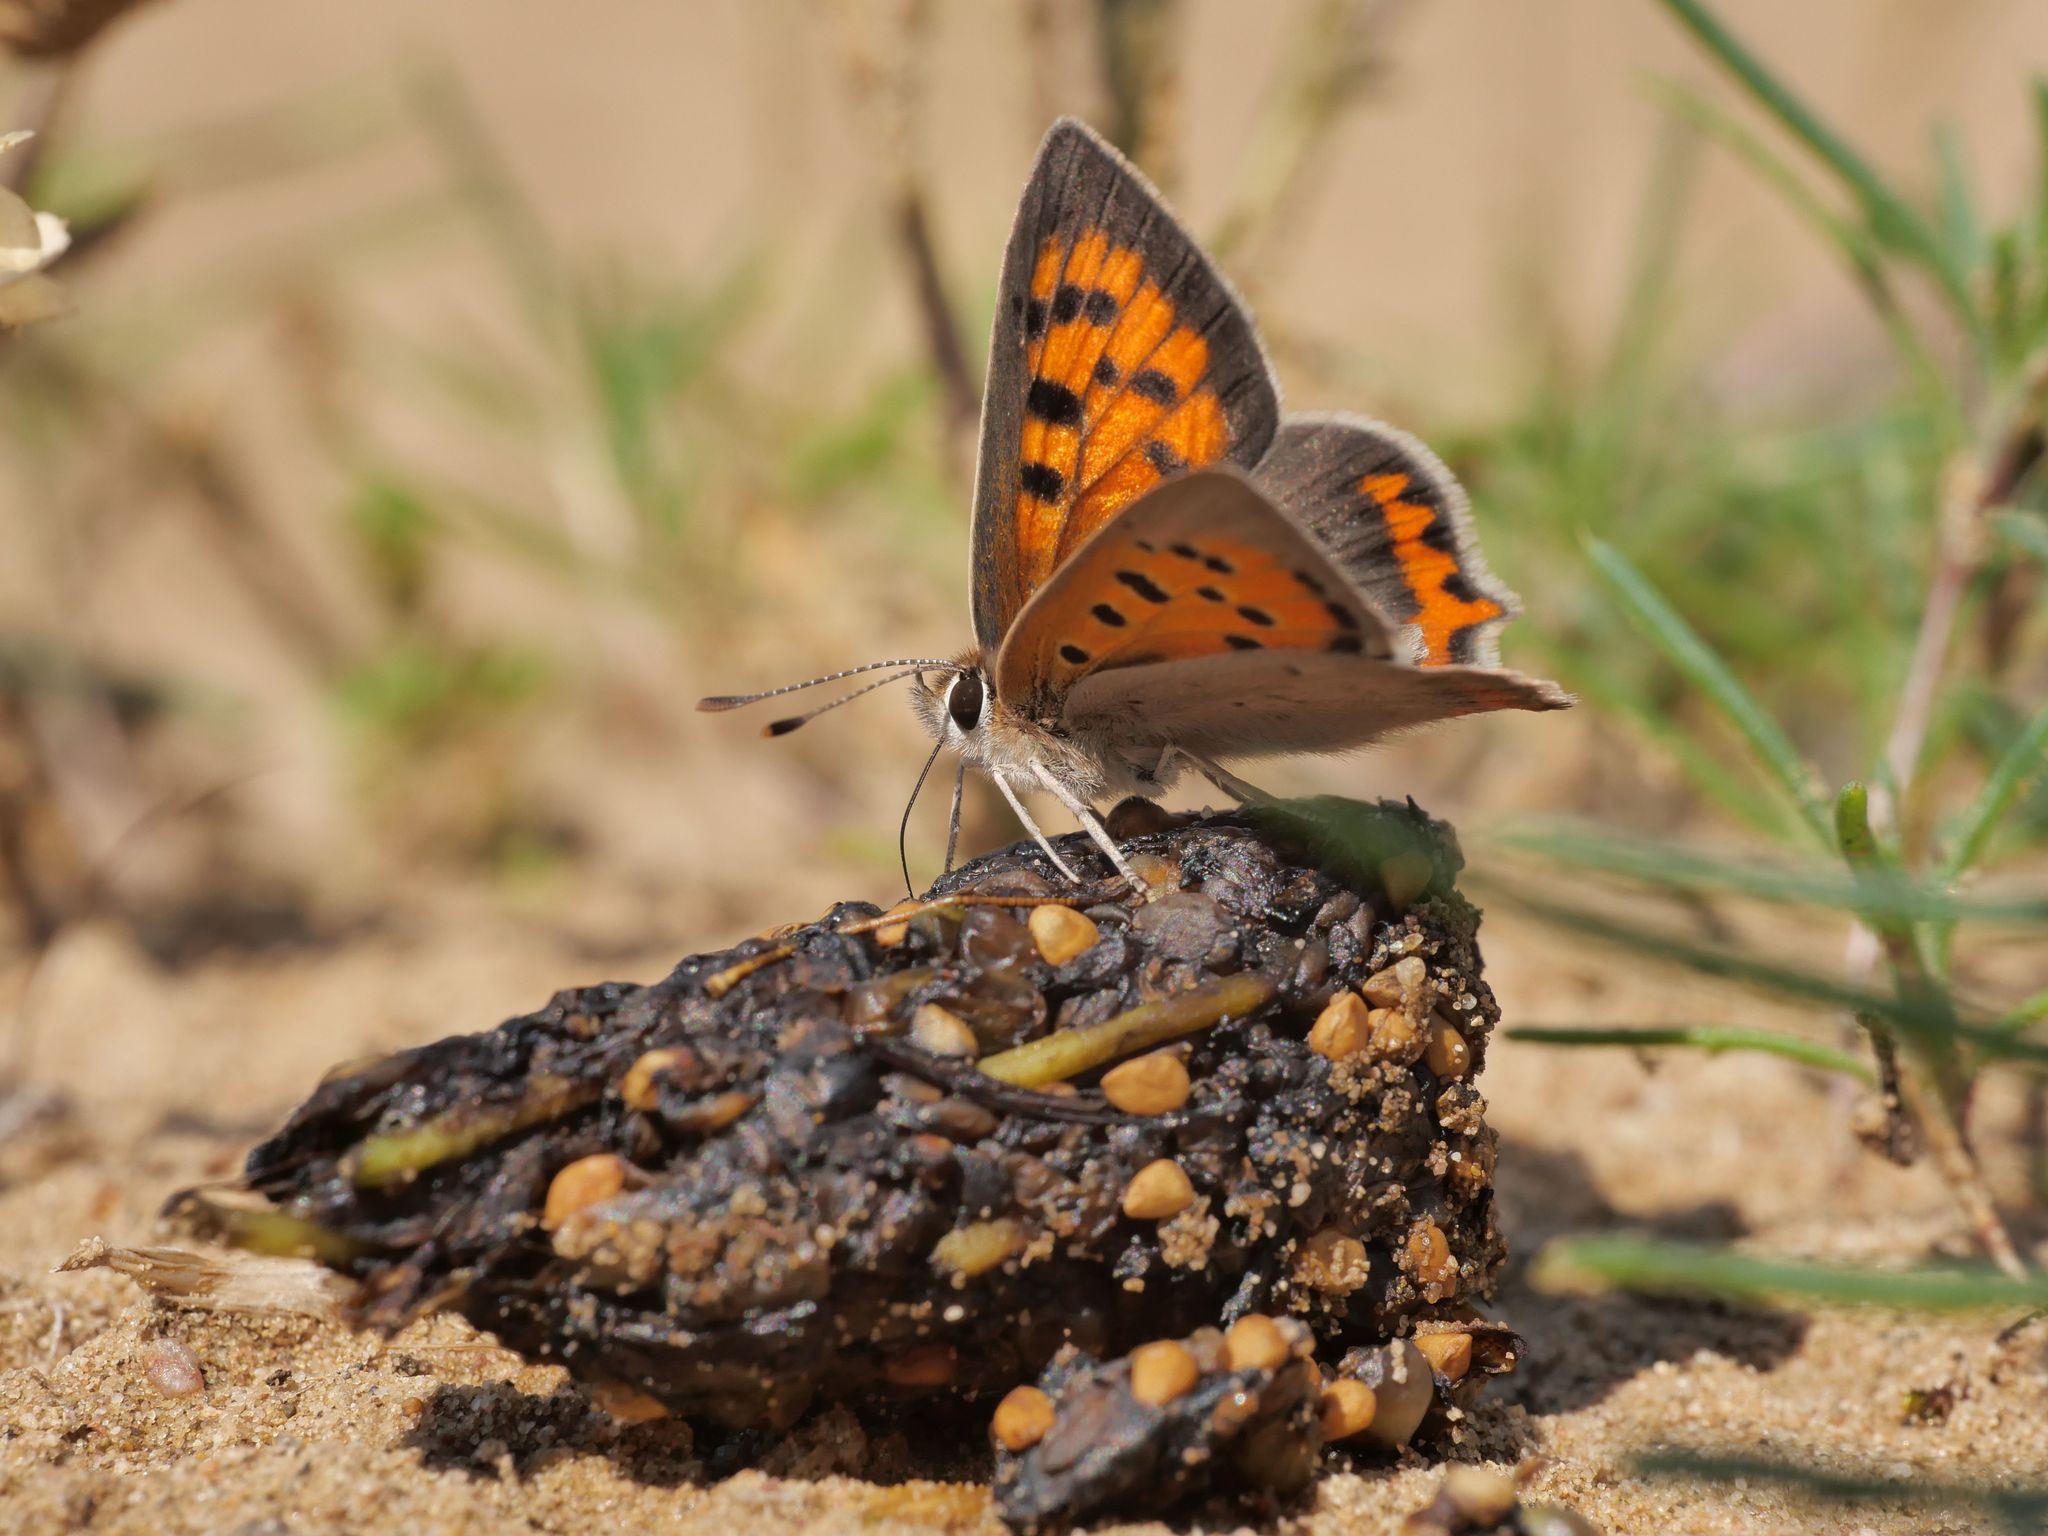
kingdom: Animalia
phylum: Arthropoda
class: Insecta
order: Lepidoptera
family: Lycaenidae
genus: Lycaena
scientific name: Lycaena phlaeas
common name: Small copper
